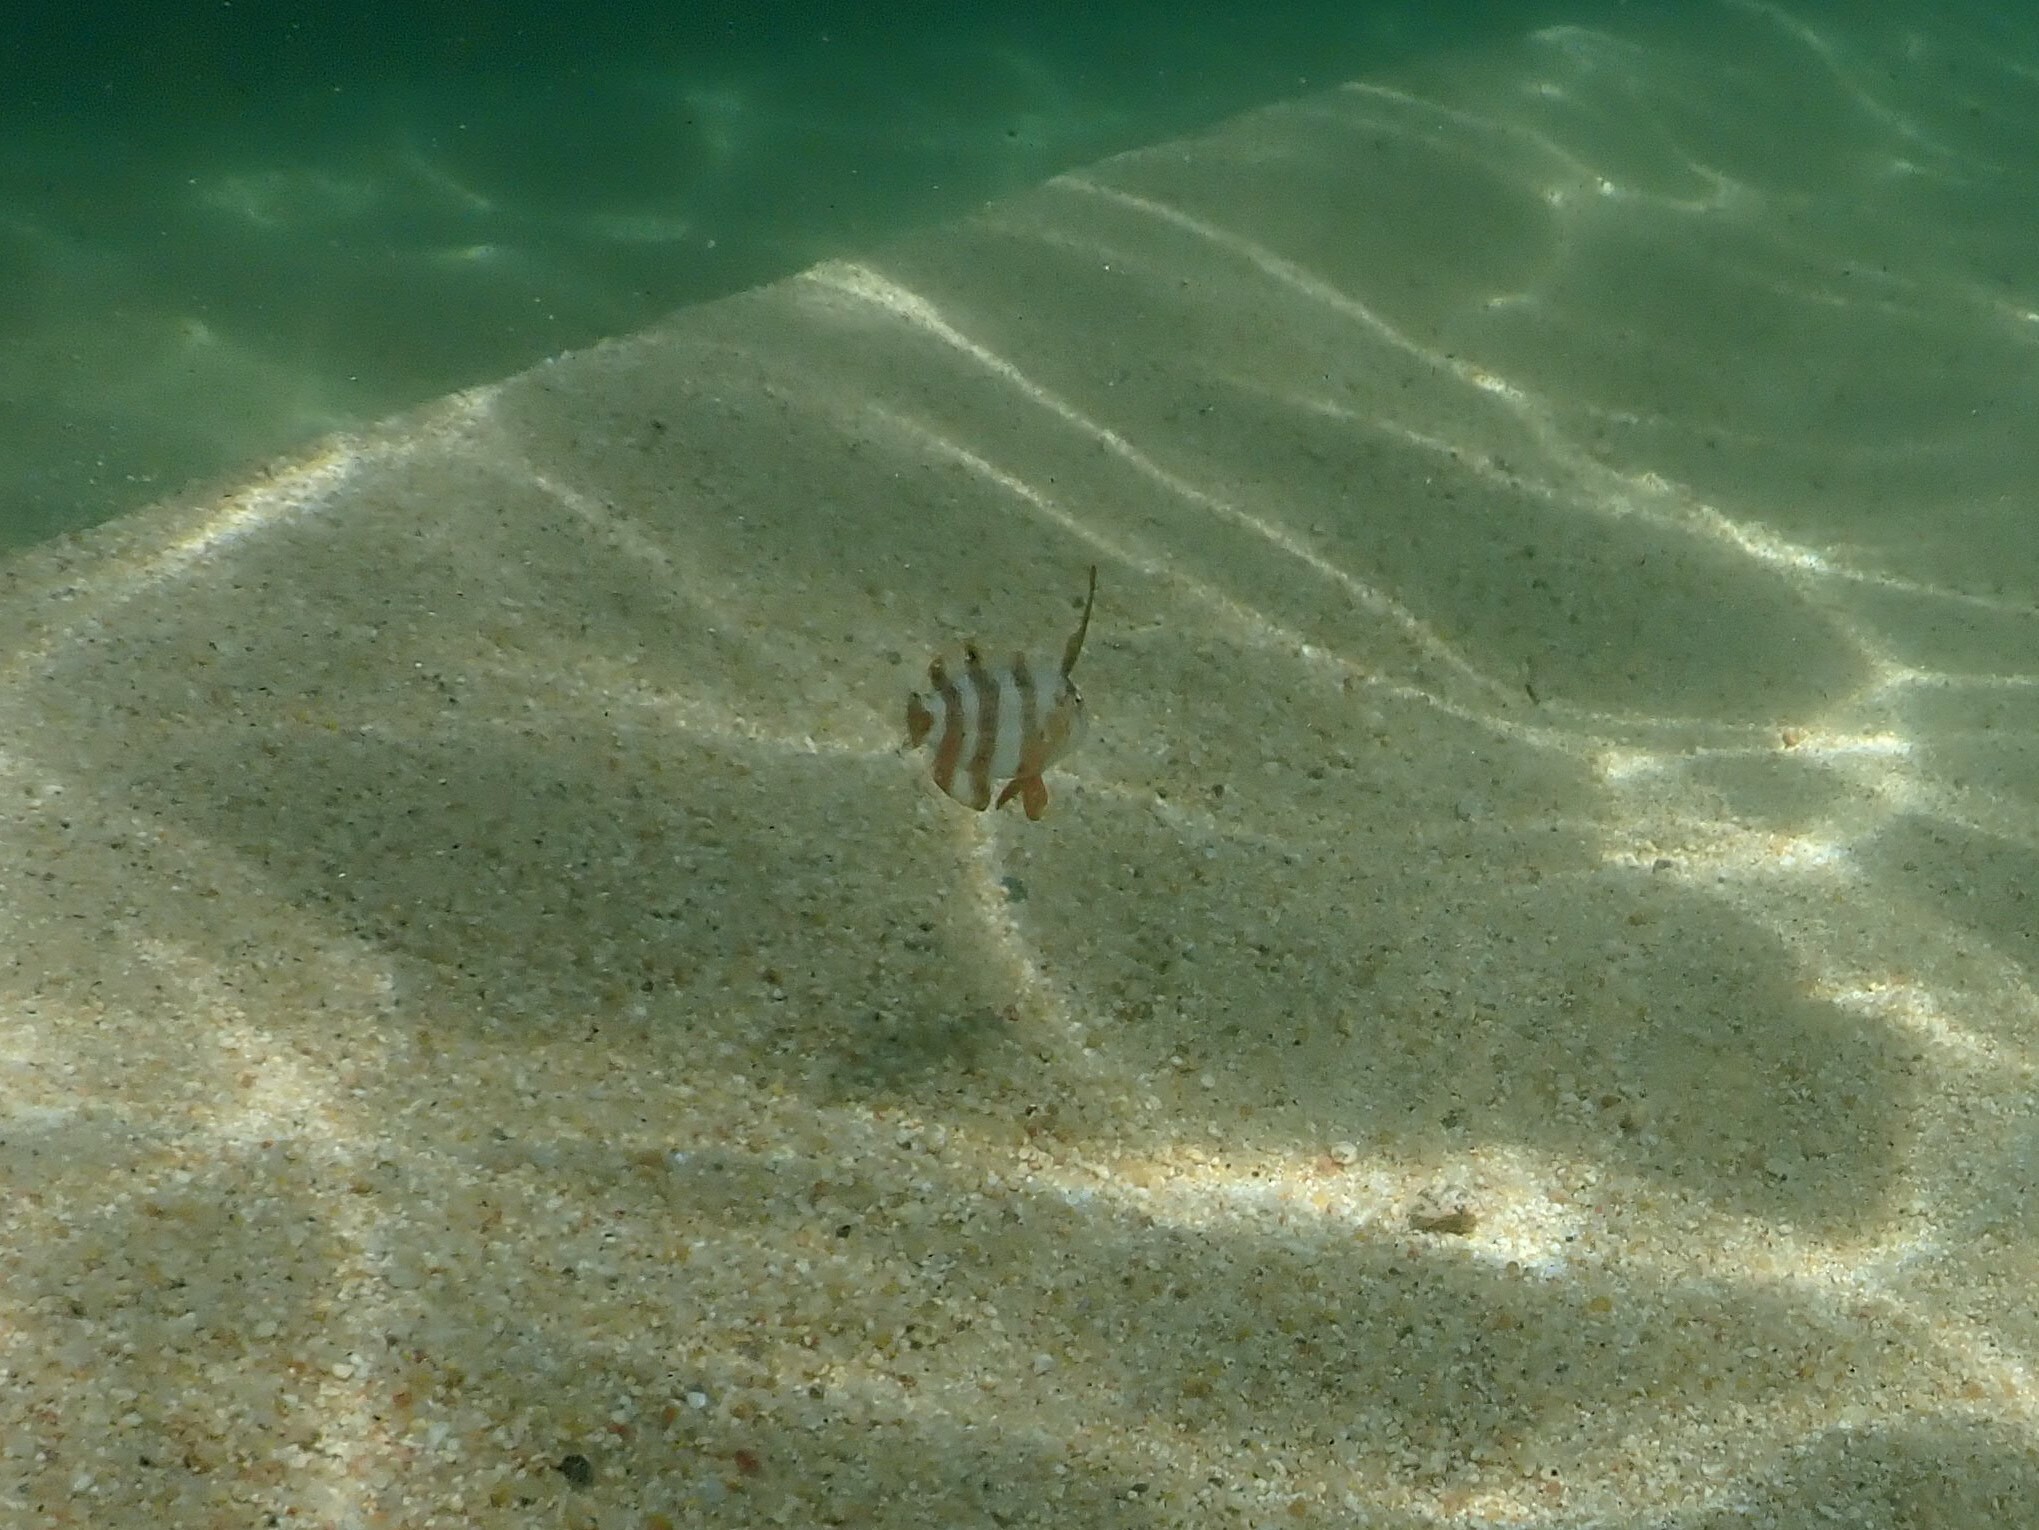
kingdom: Animalia
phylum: Chordata
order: Perciformes
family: Labridae
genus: Iniistius
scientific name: Iniistius pavo
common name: Peacock wrasse
